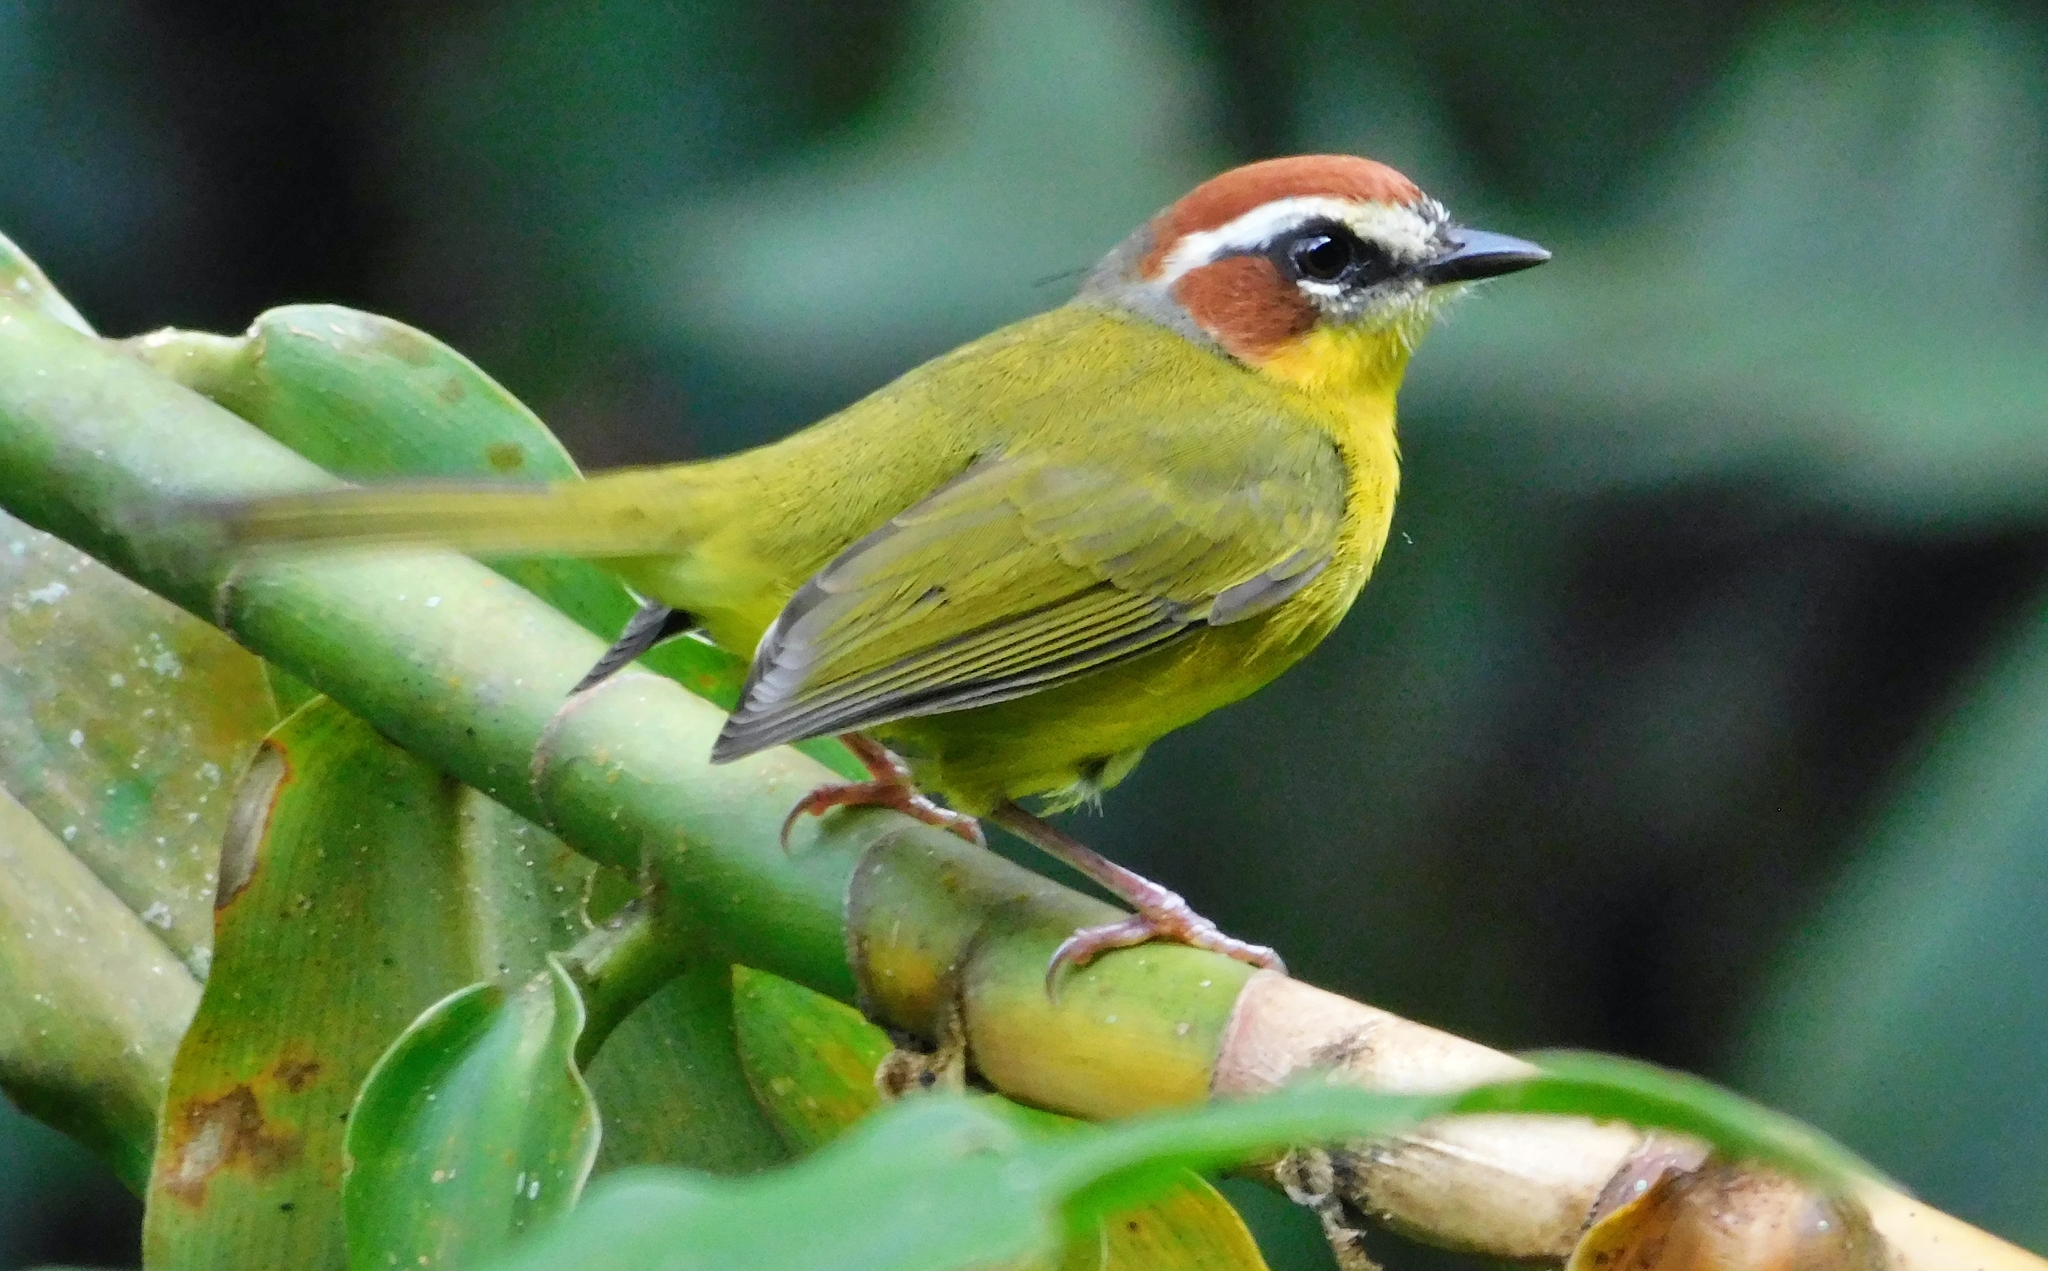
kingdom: Animalia
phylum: Chordata
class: Aves
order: Passeriformes
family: Parulidae
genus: Basileuterus
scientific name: Basileuterus rufifrons
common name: Rufous-capped warbler
